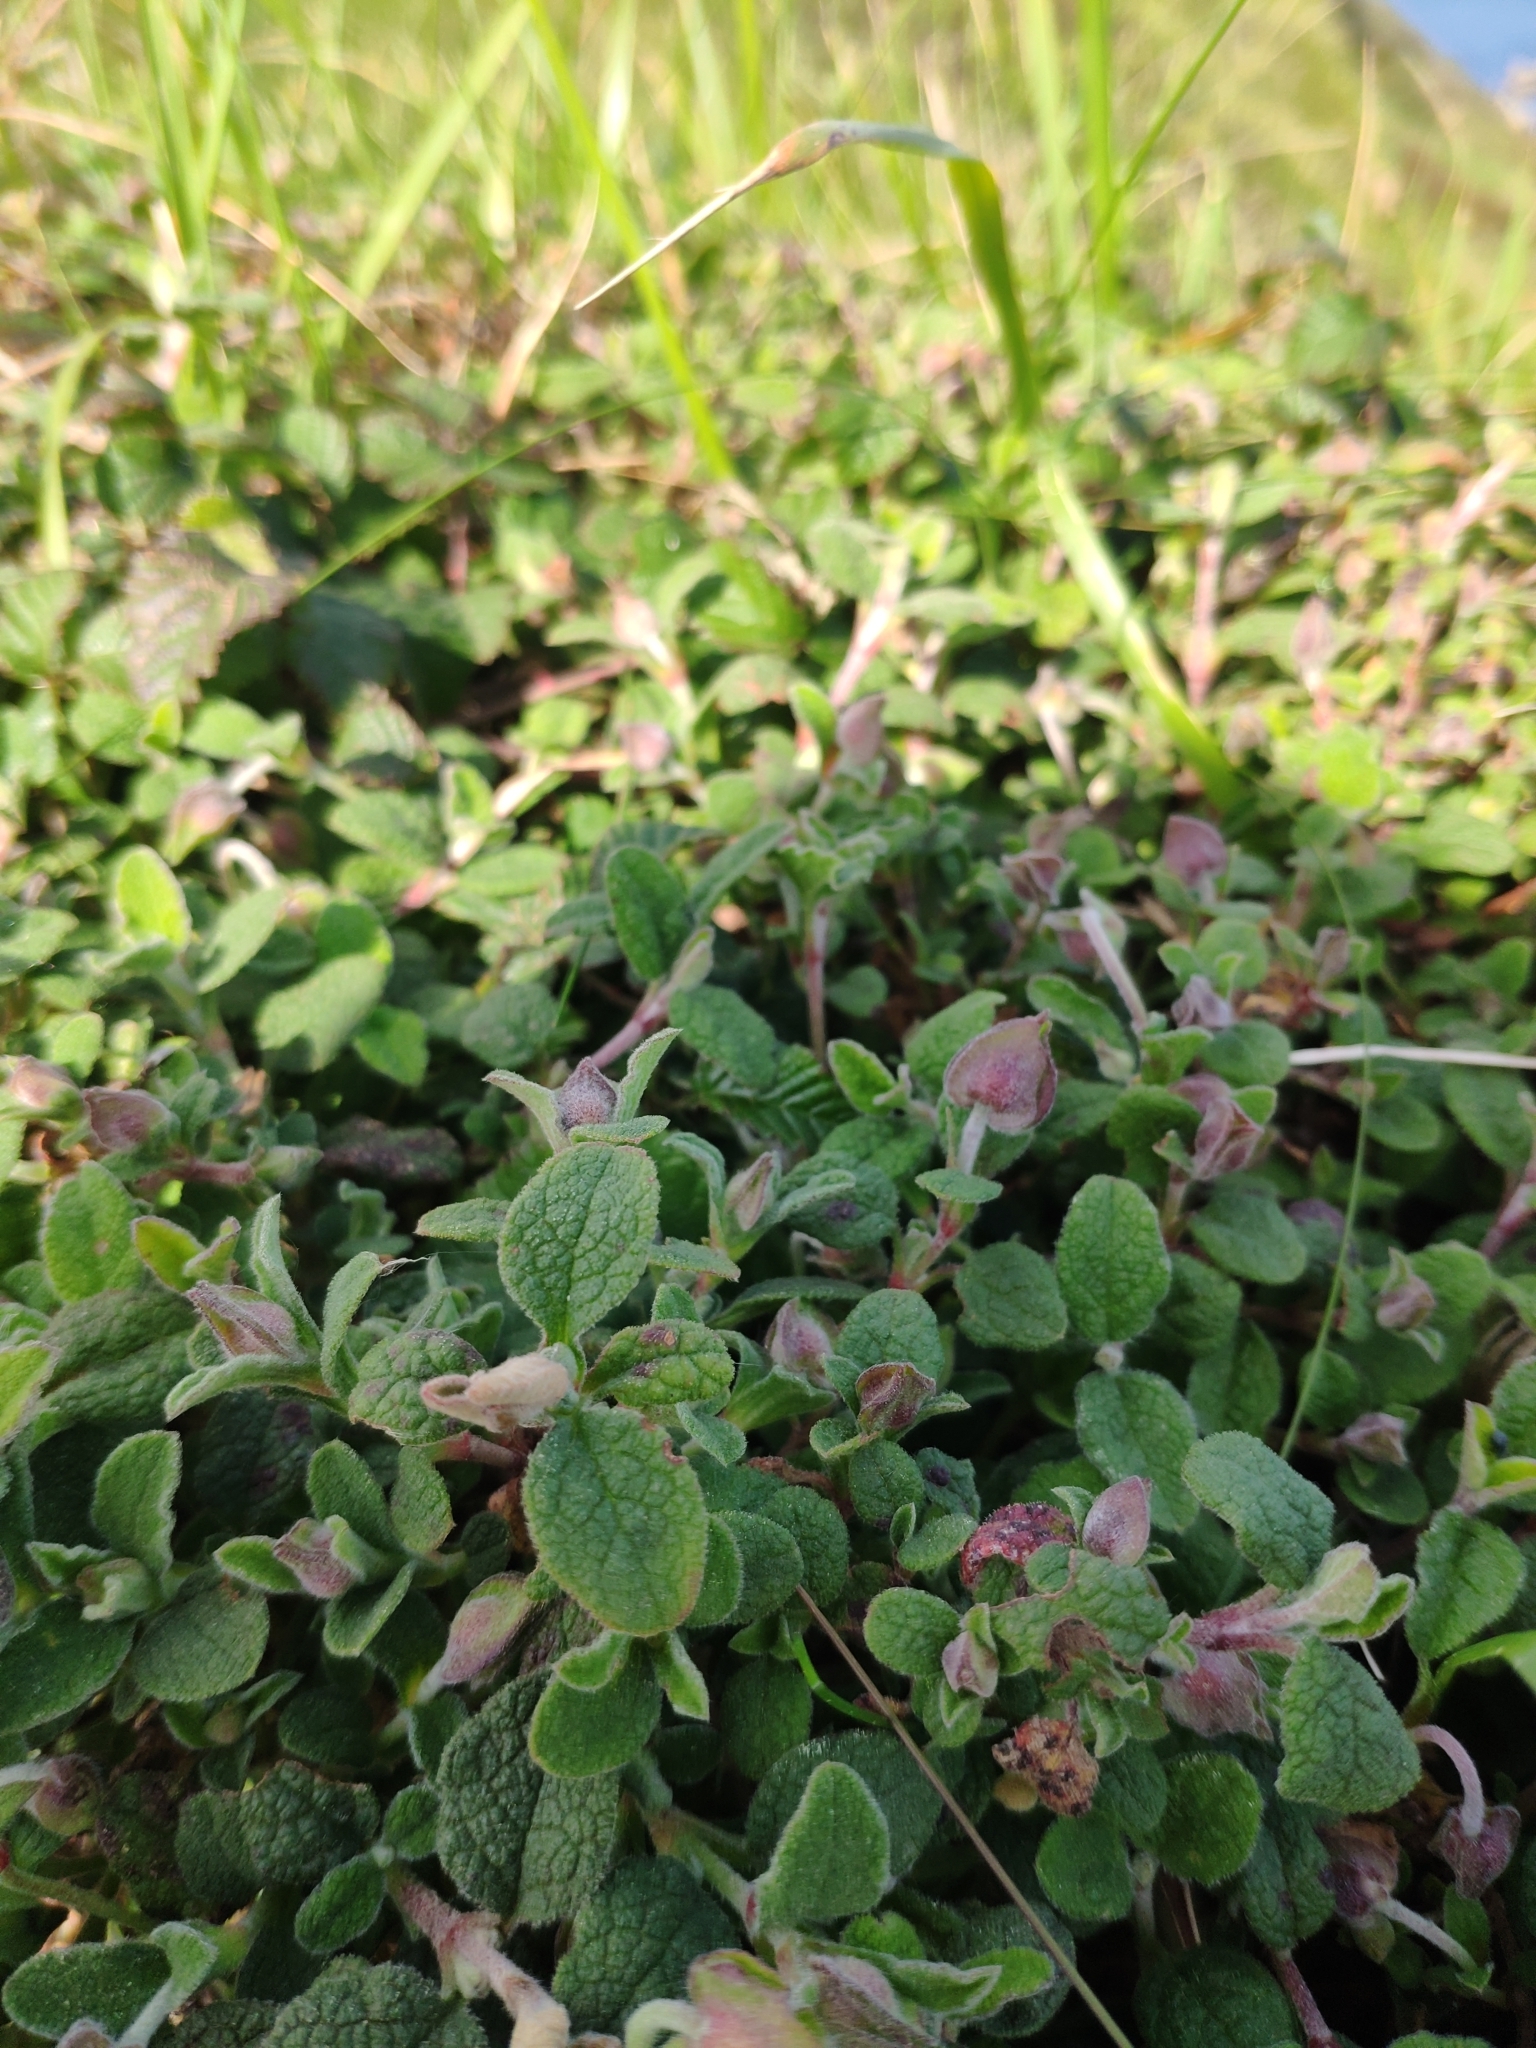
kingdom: Plantae
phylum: Tracheophyta
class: Magnoliopsida
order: Malvales
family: Cistaceae
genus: Cistus
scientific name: Cistus salviifolius
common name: Salvia cistus
